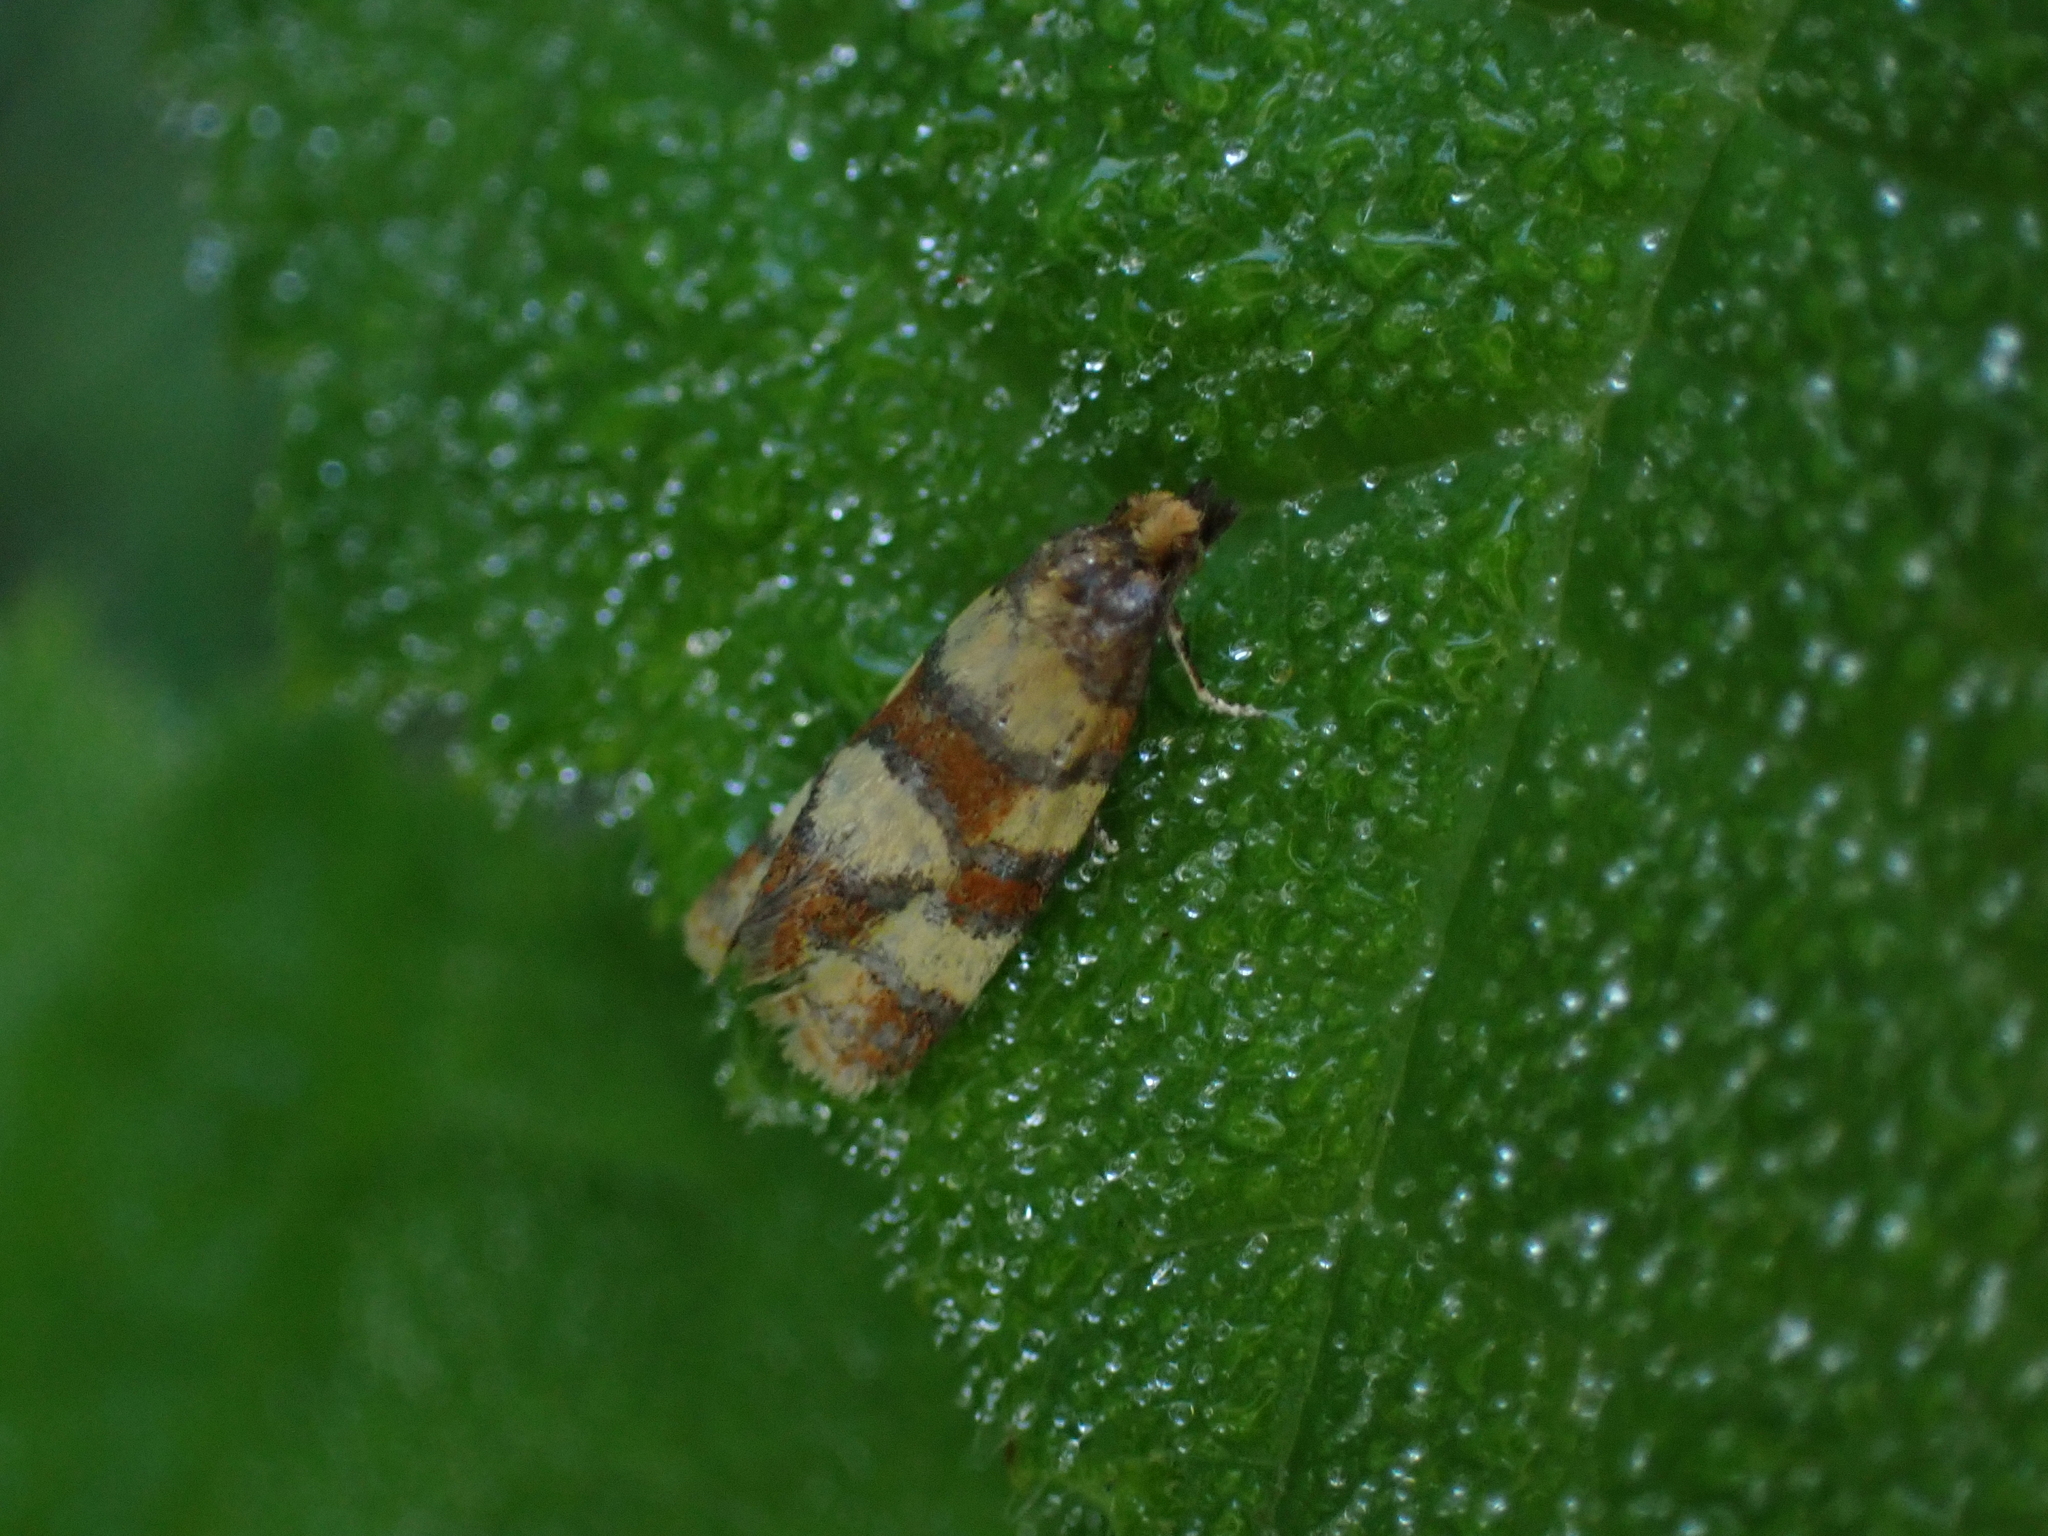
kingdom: Animalia
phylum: Arthropoda
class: Insecta
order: Lepidoptera
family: Tortricidae
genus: Aethes
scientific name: Aethes tesserana
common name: Downland conch
